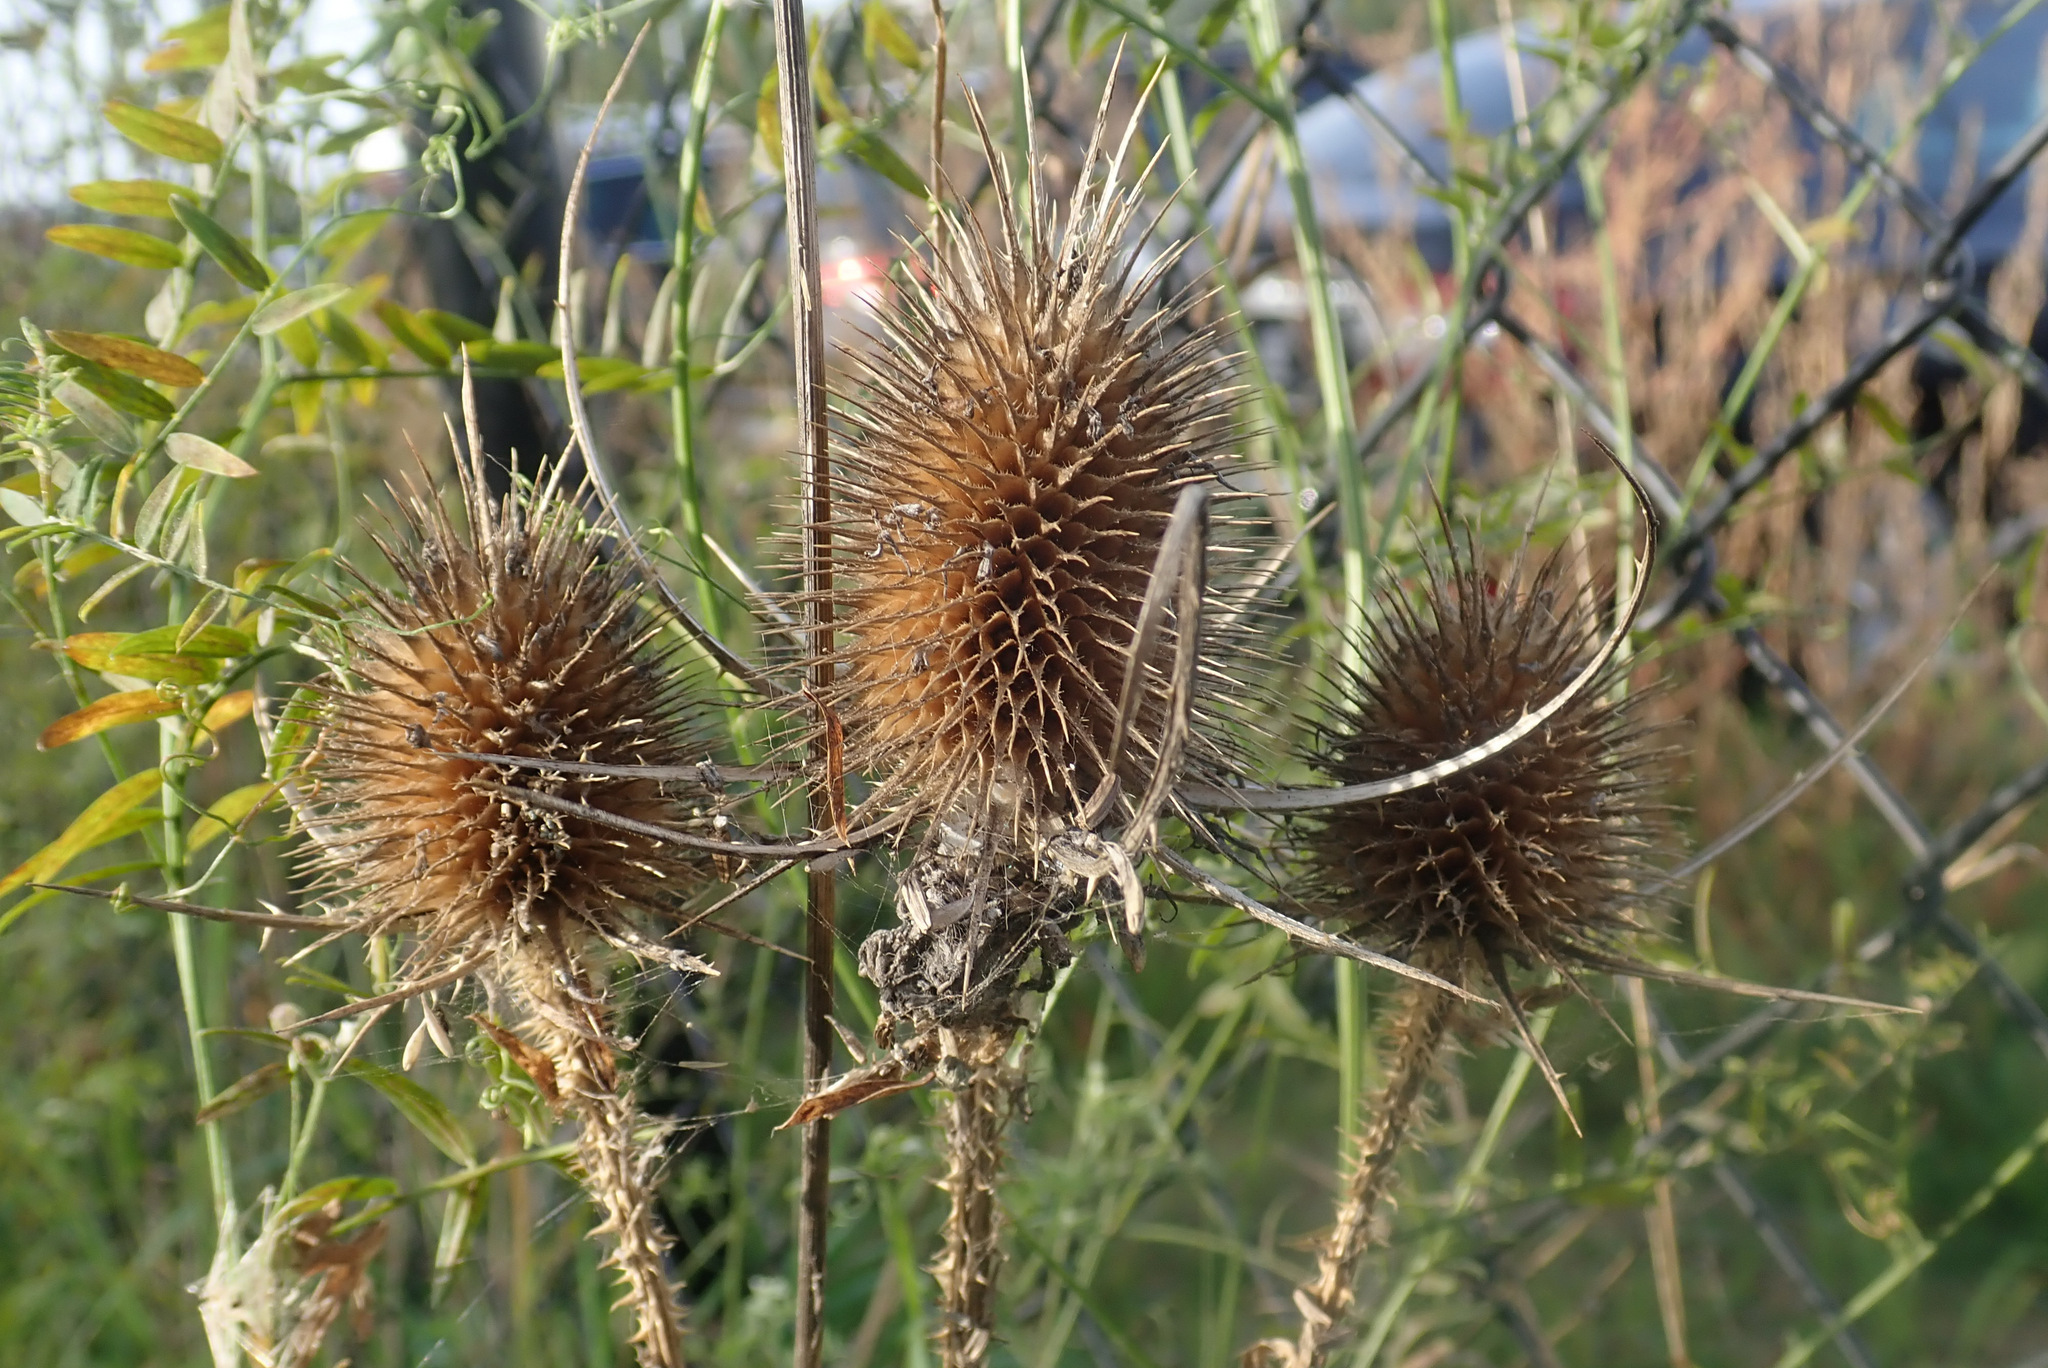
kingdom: Plantae
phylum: Tracheophyta
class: Magnoliopsida
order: Dipsacales
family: Caprifoliaceae
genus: Dipsacus
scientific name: Dipsacus fullonum
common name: Teasel
